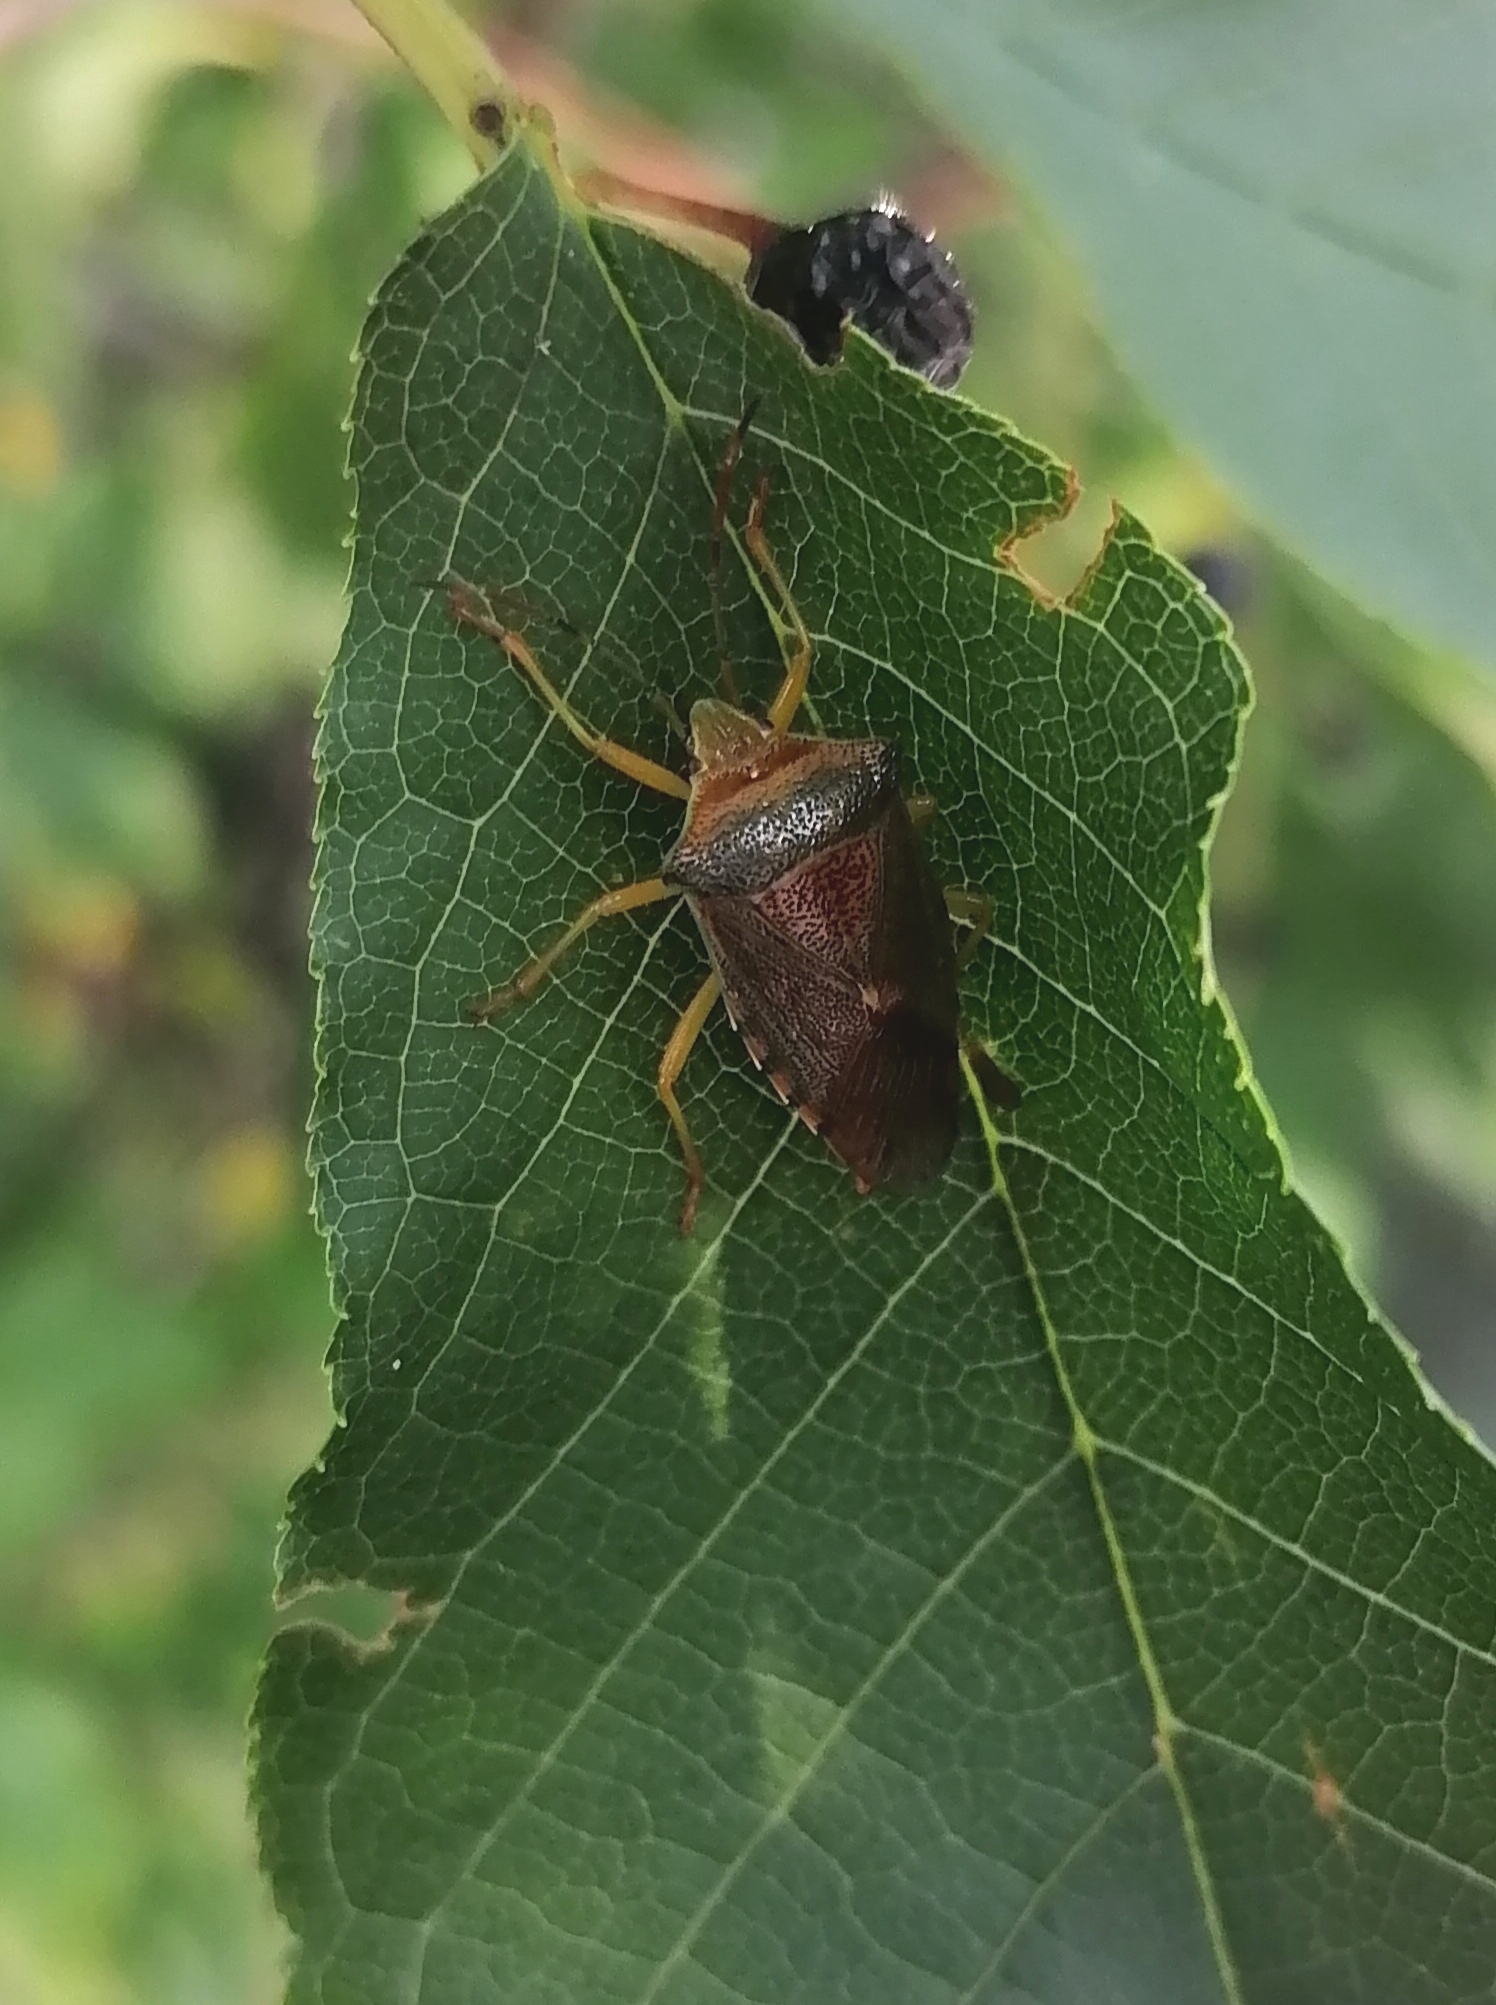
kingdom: Animalia
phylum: Arthropoda
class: Insecta
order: Hemiptera
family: Acanthosomatidae
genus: Acanthosoma
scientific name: Acanthosoma denticaudum
